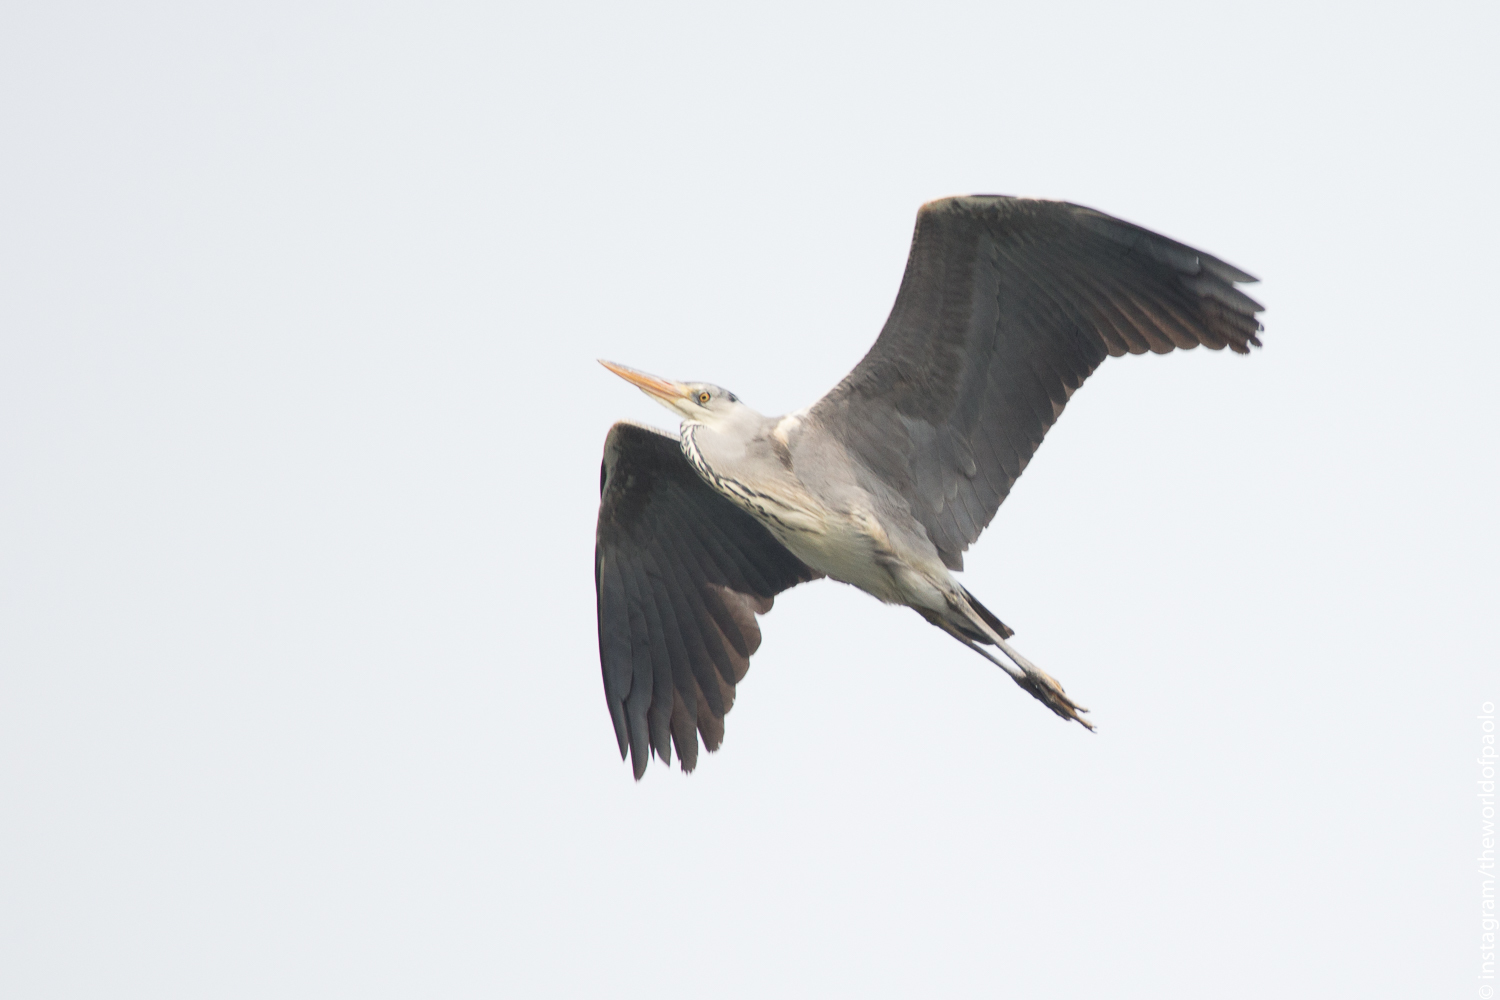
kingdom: Animalia
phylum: Chordata
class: Aves
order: Pelecaniformes
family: Ardeidae
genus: Ardea
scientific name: Ardea cinerea
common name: Grey heron
